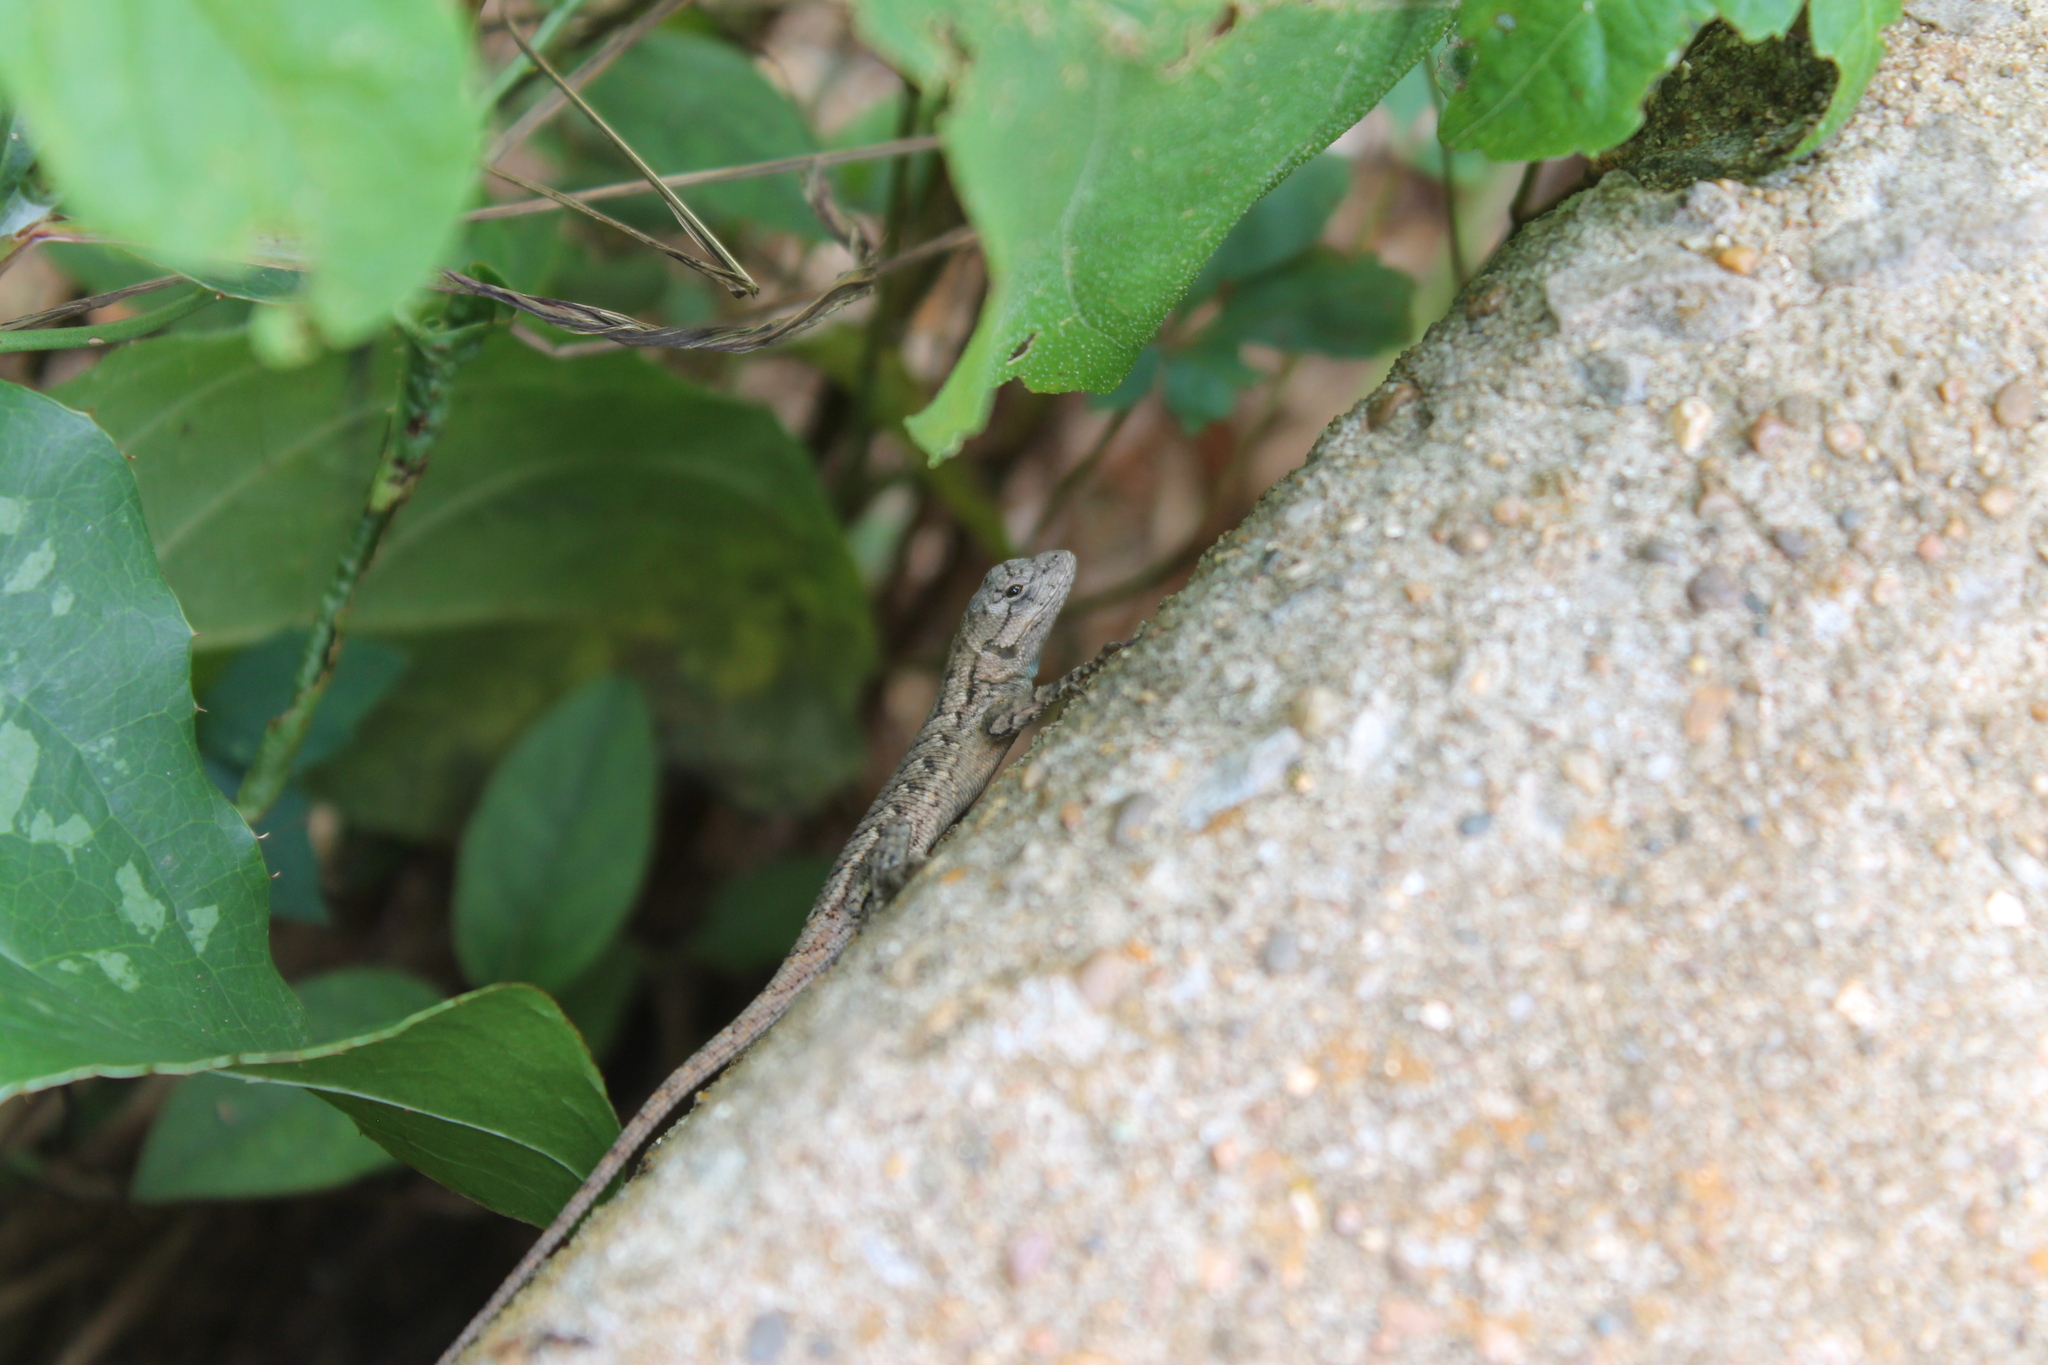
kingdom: Animalia
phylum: Chordata
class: Squamata
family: Phrynosomatidae
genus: Sceloporus
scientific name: Sceloporus undulatus
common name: Eastern fence lizard
